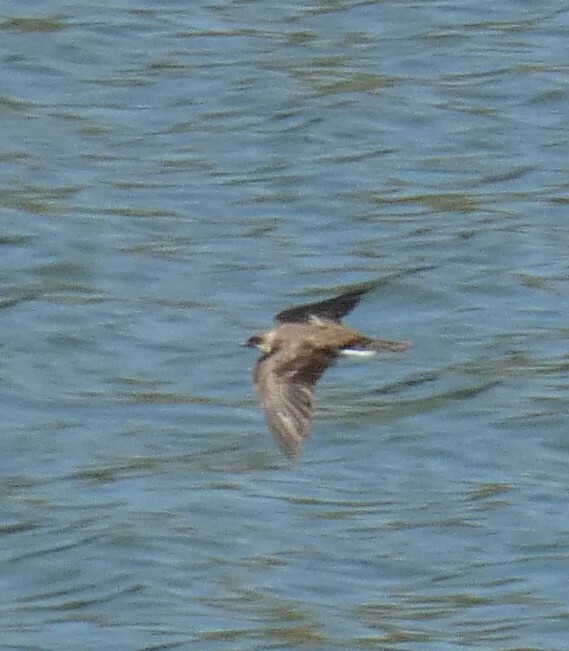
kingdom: Animalia
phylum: Chordata
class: Aves
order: Passeriformes
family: Hirundinidae
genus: Progne
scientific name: Progne tapera
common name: Brown-chested martin
